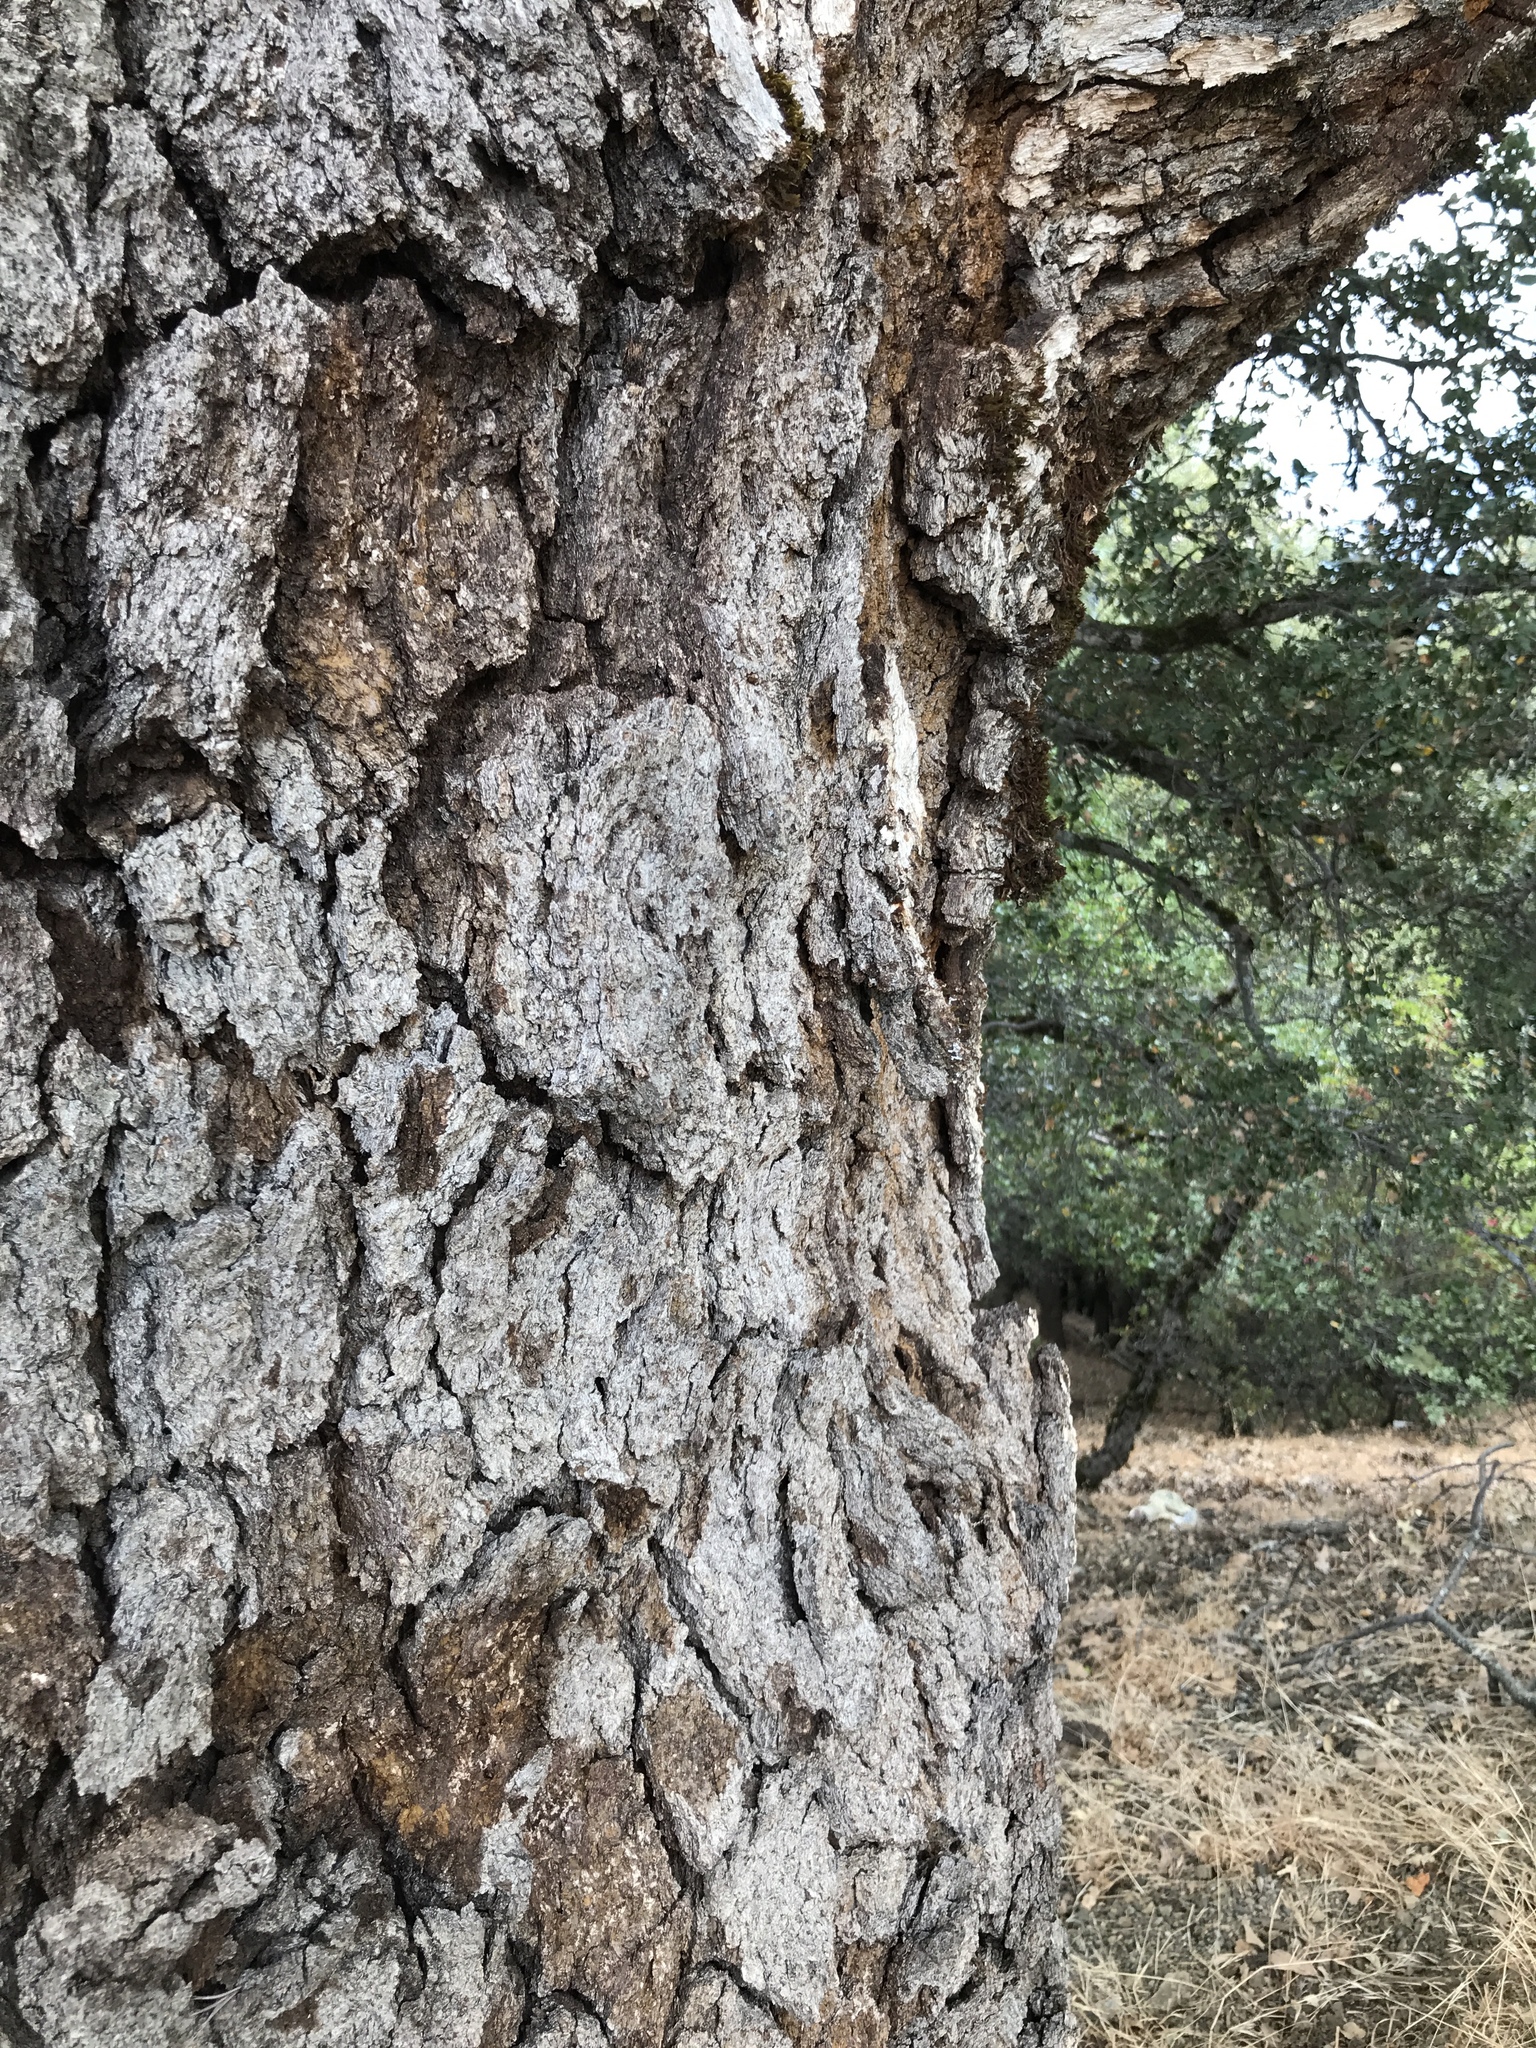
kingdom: Plantae
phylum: Tracheophyta
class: Magnoliopsida
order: Fagales
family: Fagaceae
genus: Quercus
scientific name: Quercus kelloggii
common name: California black oak
